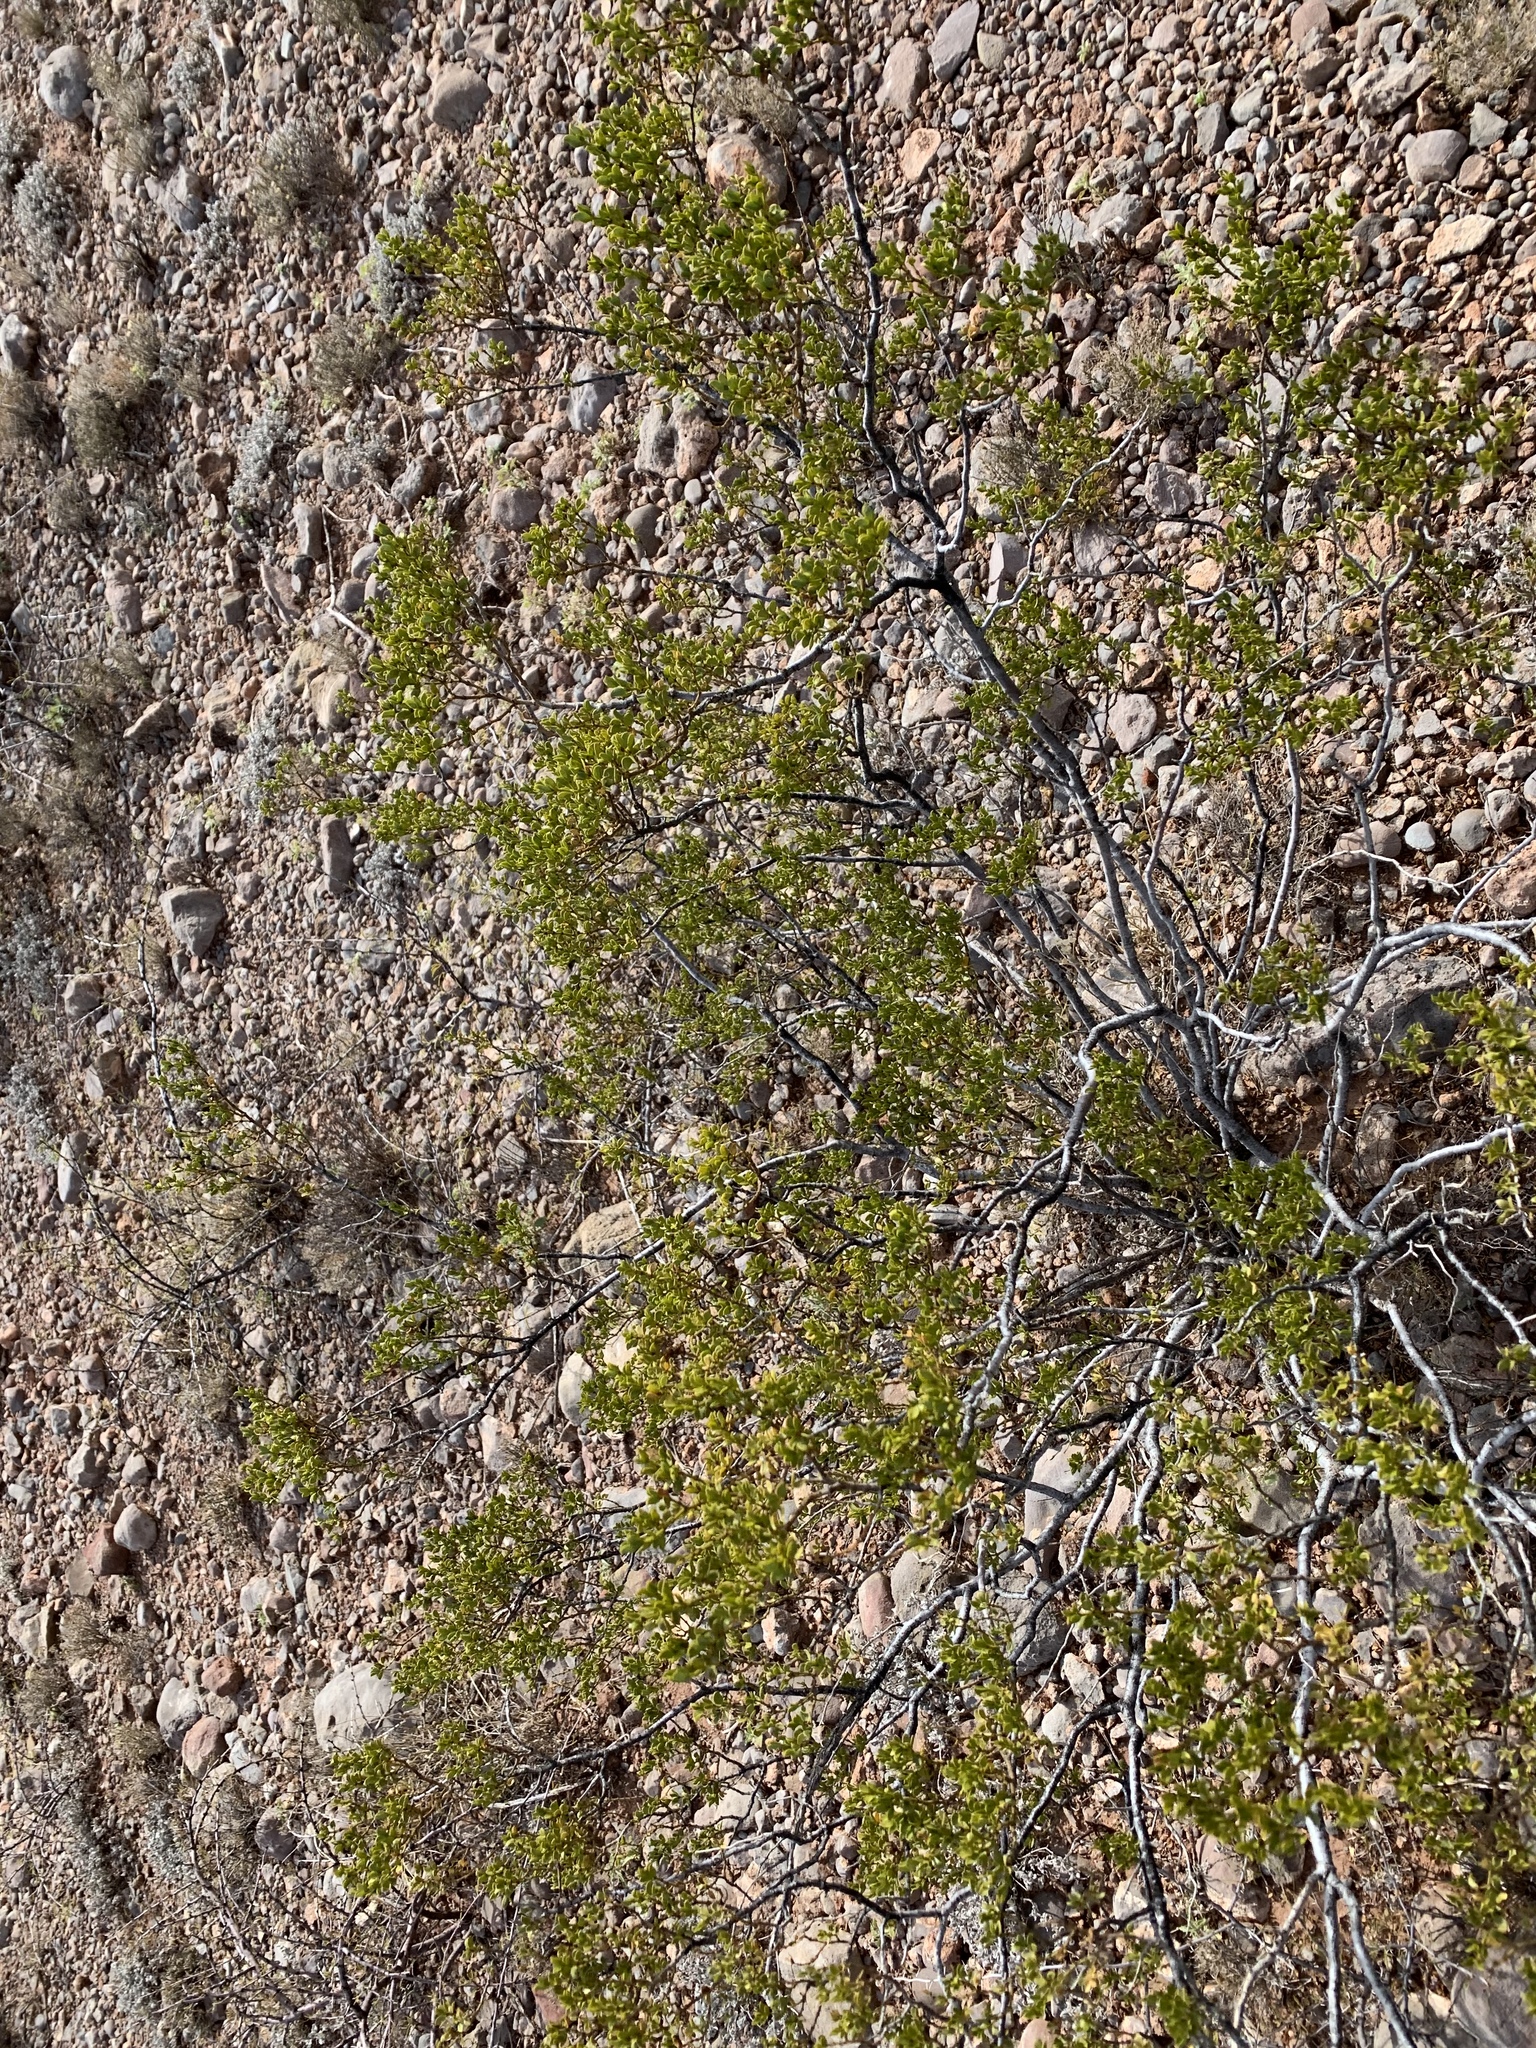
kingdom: Plantae
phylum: Tracheophyta
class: Magnoliopsida
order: Zygophyllales
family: Zygophyllaceae
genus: Larrea
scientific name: Larrea tridentata
